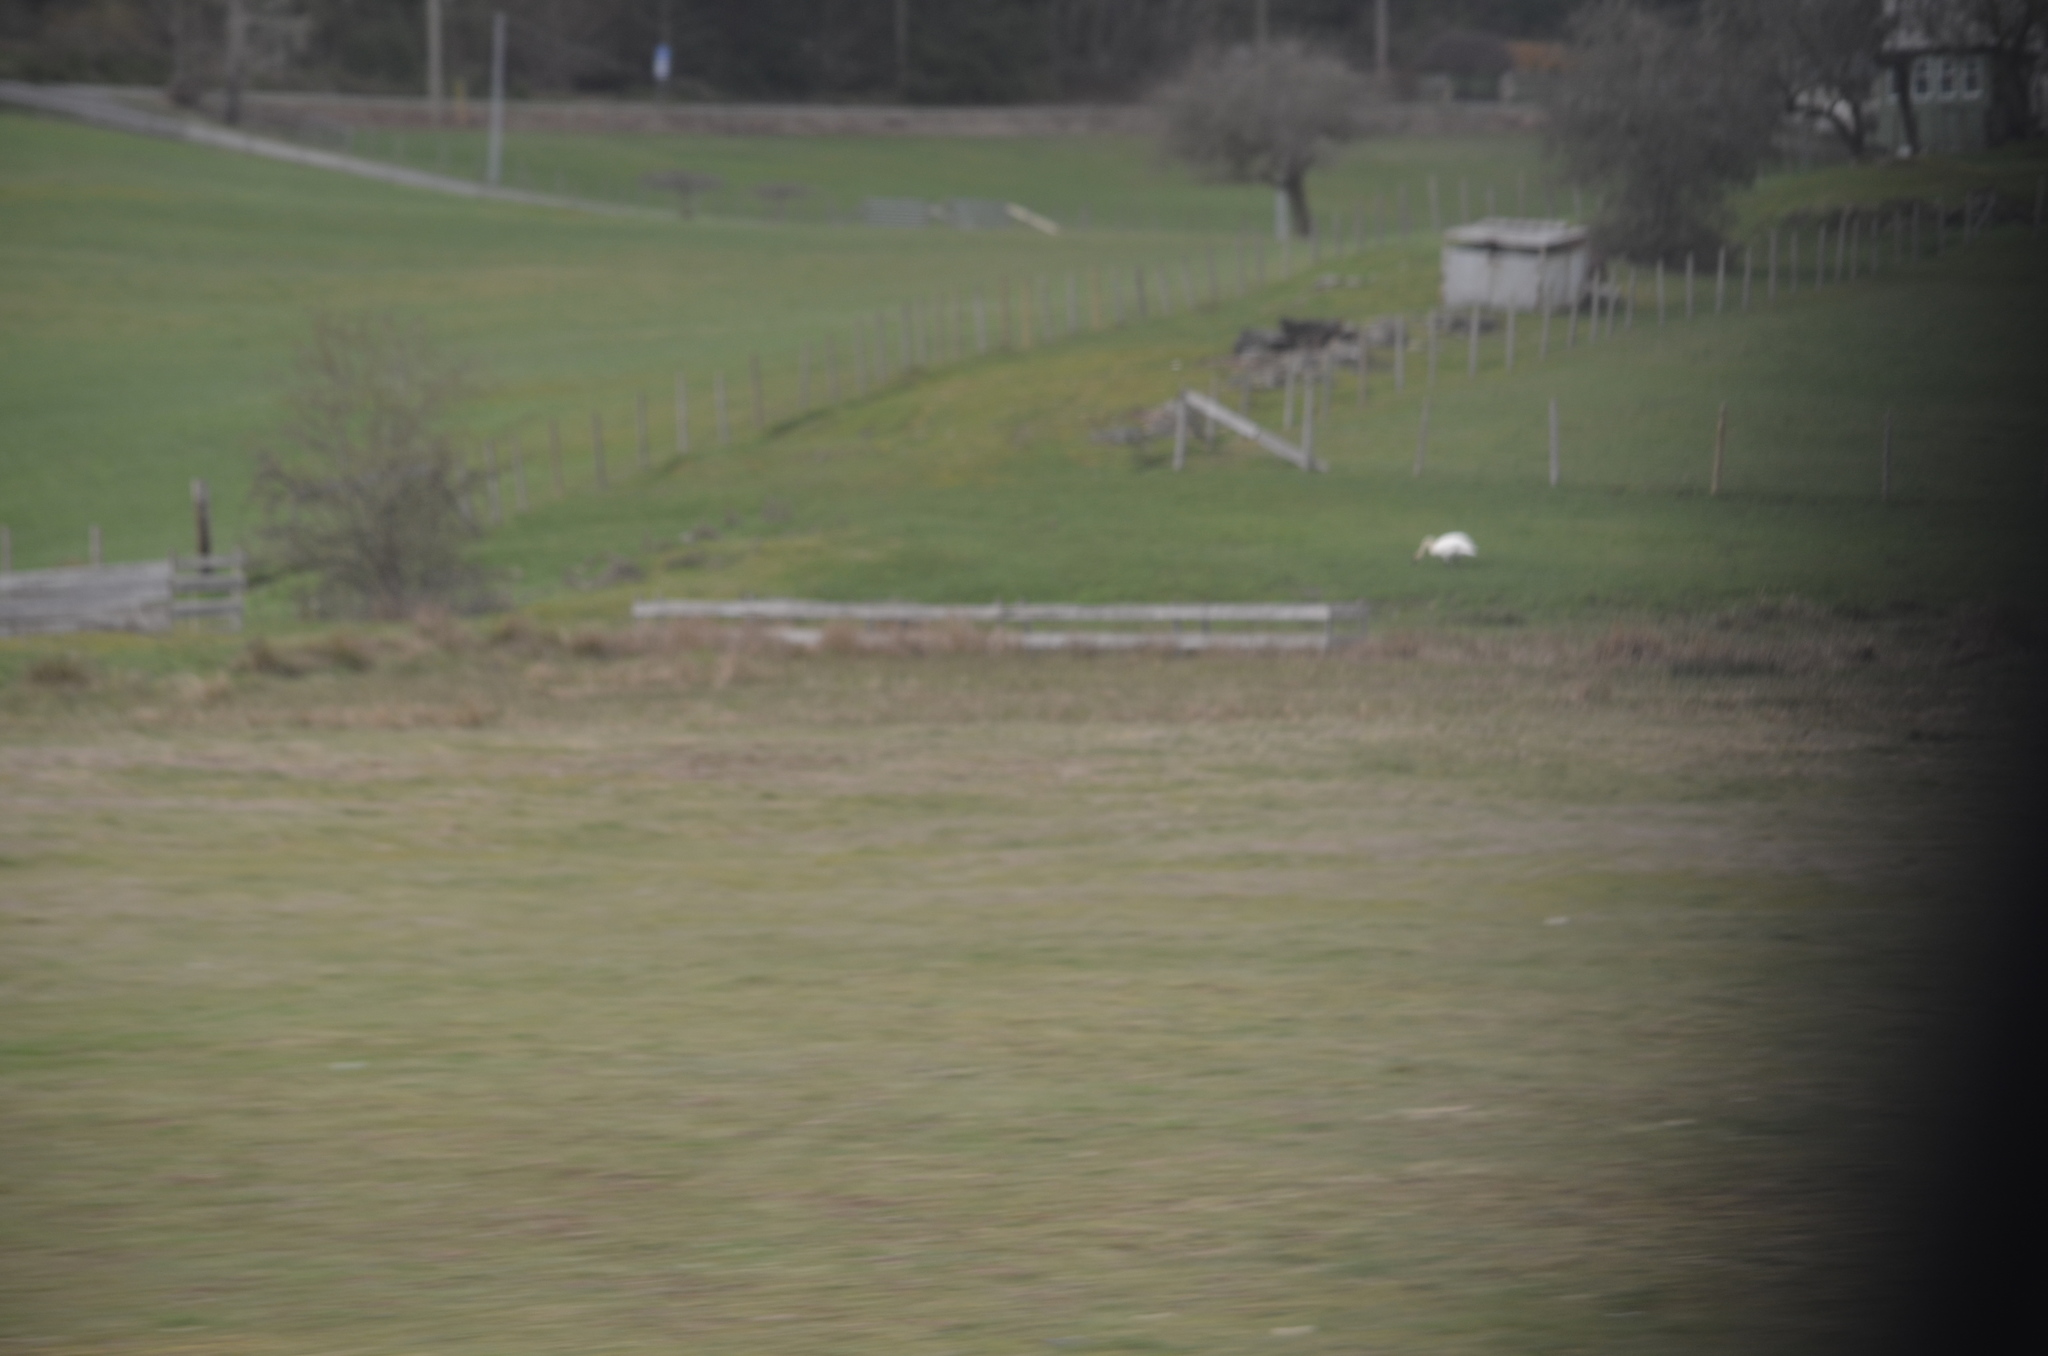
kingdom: Animalia
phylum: Chordata
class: Aves
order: Anseriformes
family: Anatidae
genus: Cygnus
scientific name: Cygnus buccinator
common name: Trumpeter swan
